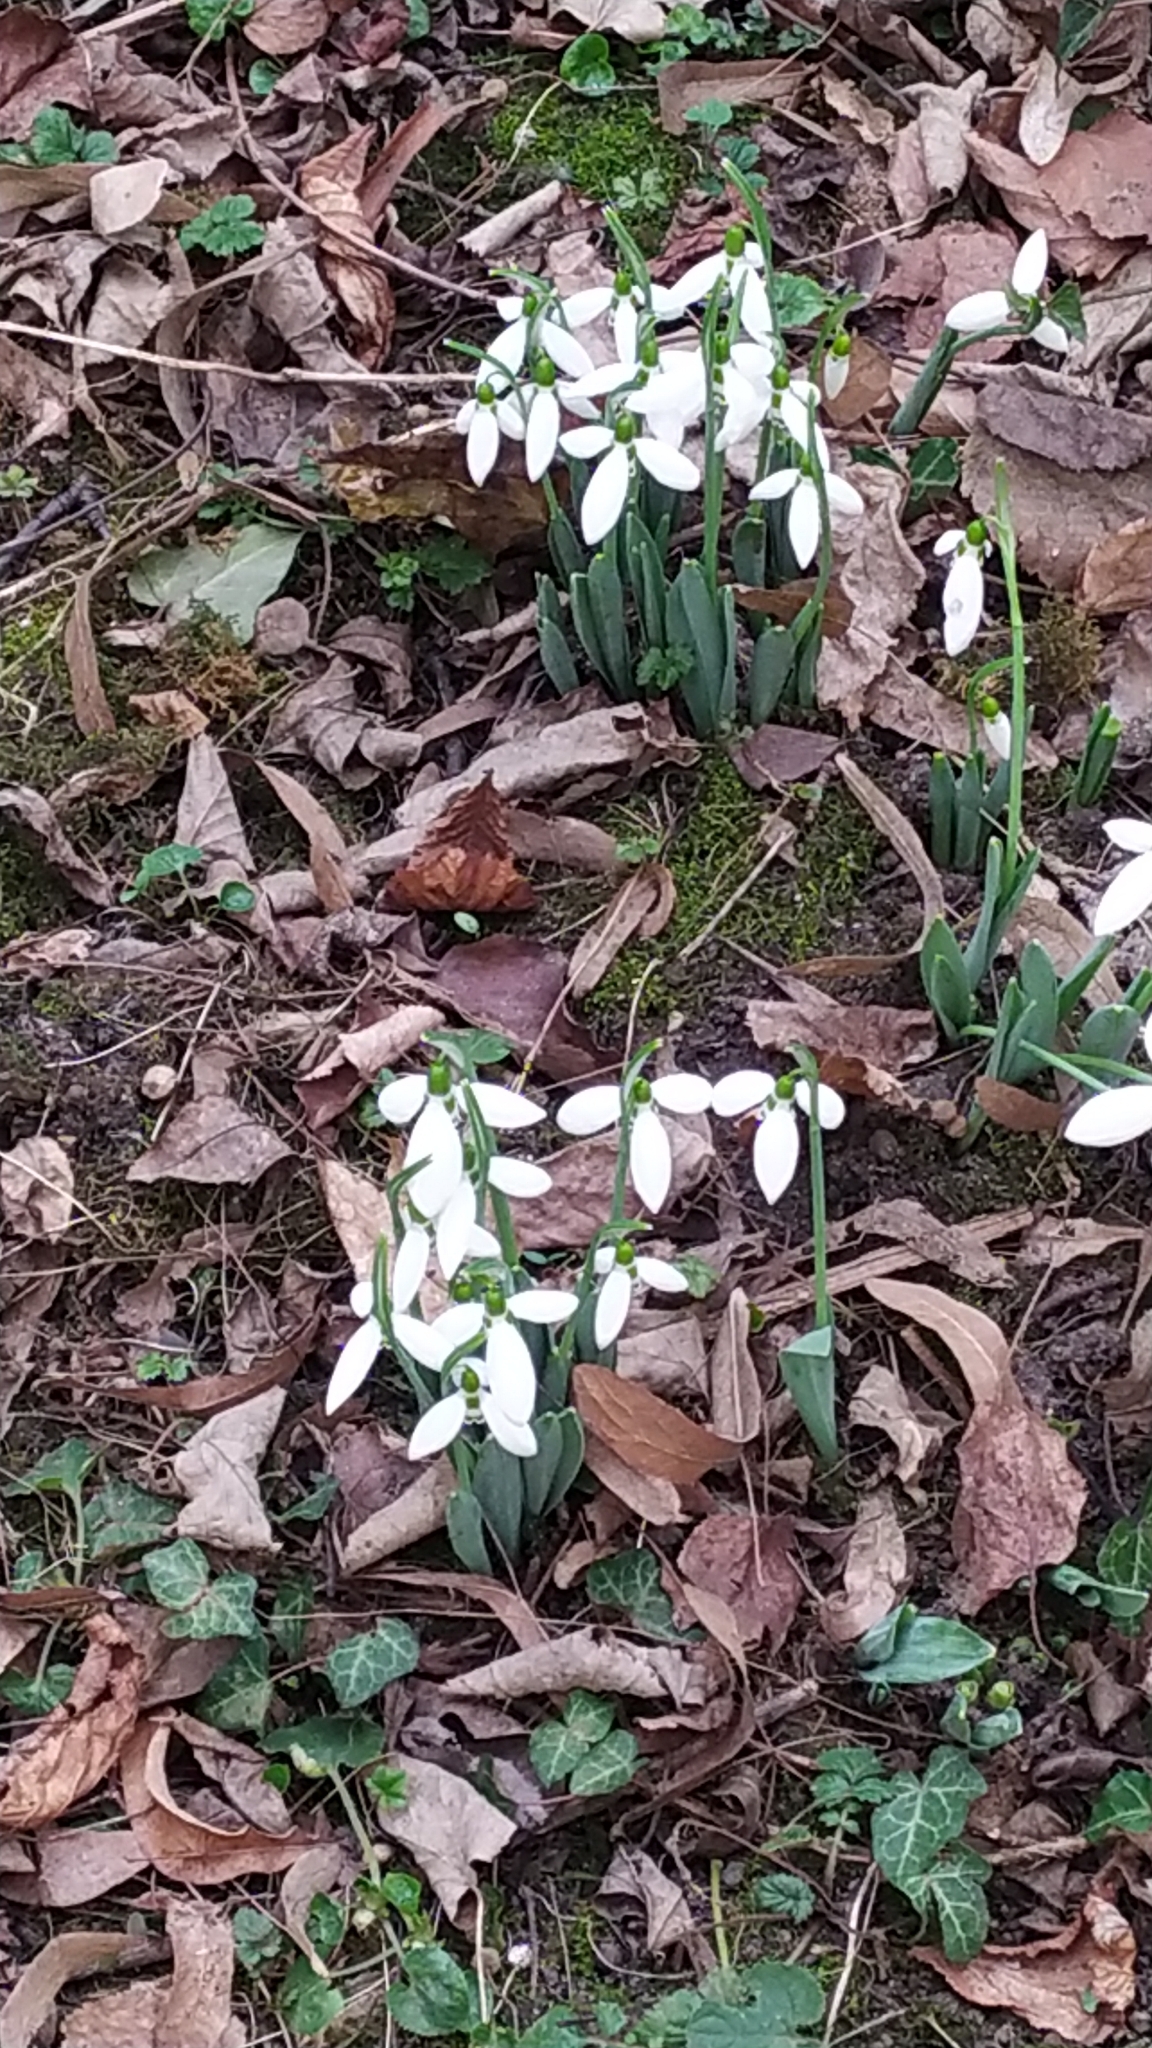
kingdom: Plantae
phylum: Tracheophyta
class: Liliopsida
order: Asparagales
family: Amaryllidaceae
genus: Galanthus
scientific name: Galanthus nivalis
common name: Snowdrop
